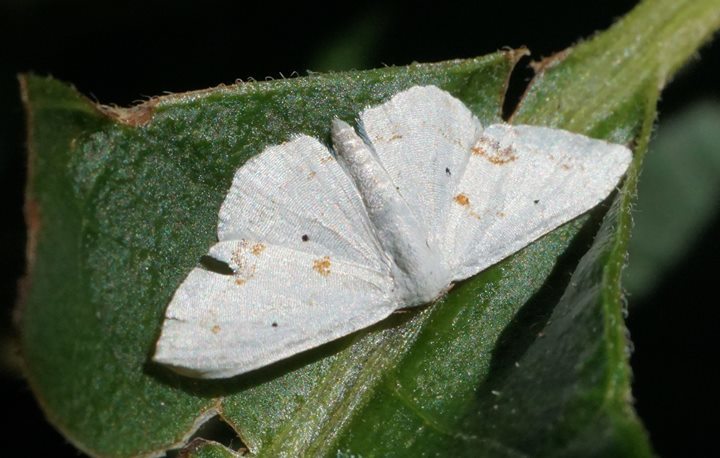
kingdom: Animalia
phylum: Arthropoda
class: Insecta
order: Lepidoptera
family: Geometridae
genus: Scopula
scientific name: Scopula lautaria
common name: Small frosted wave moth
